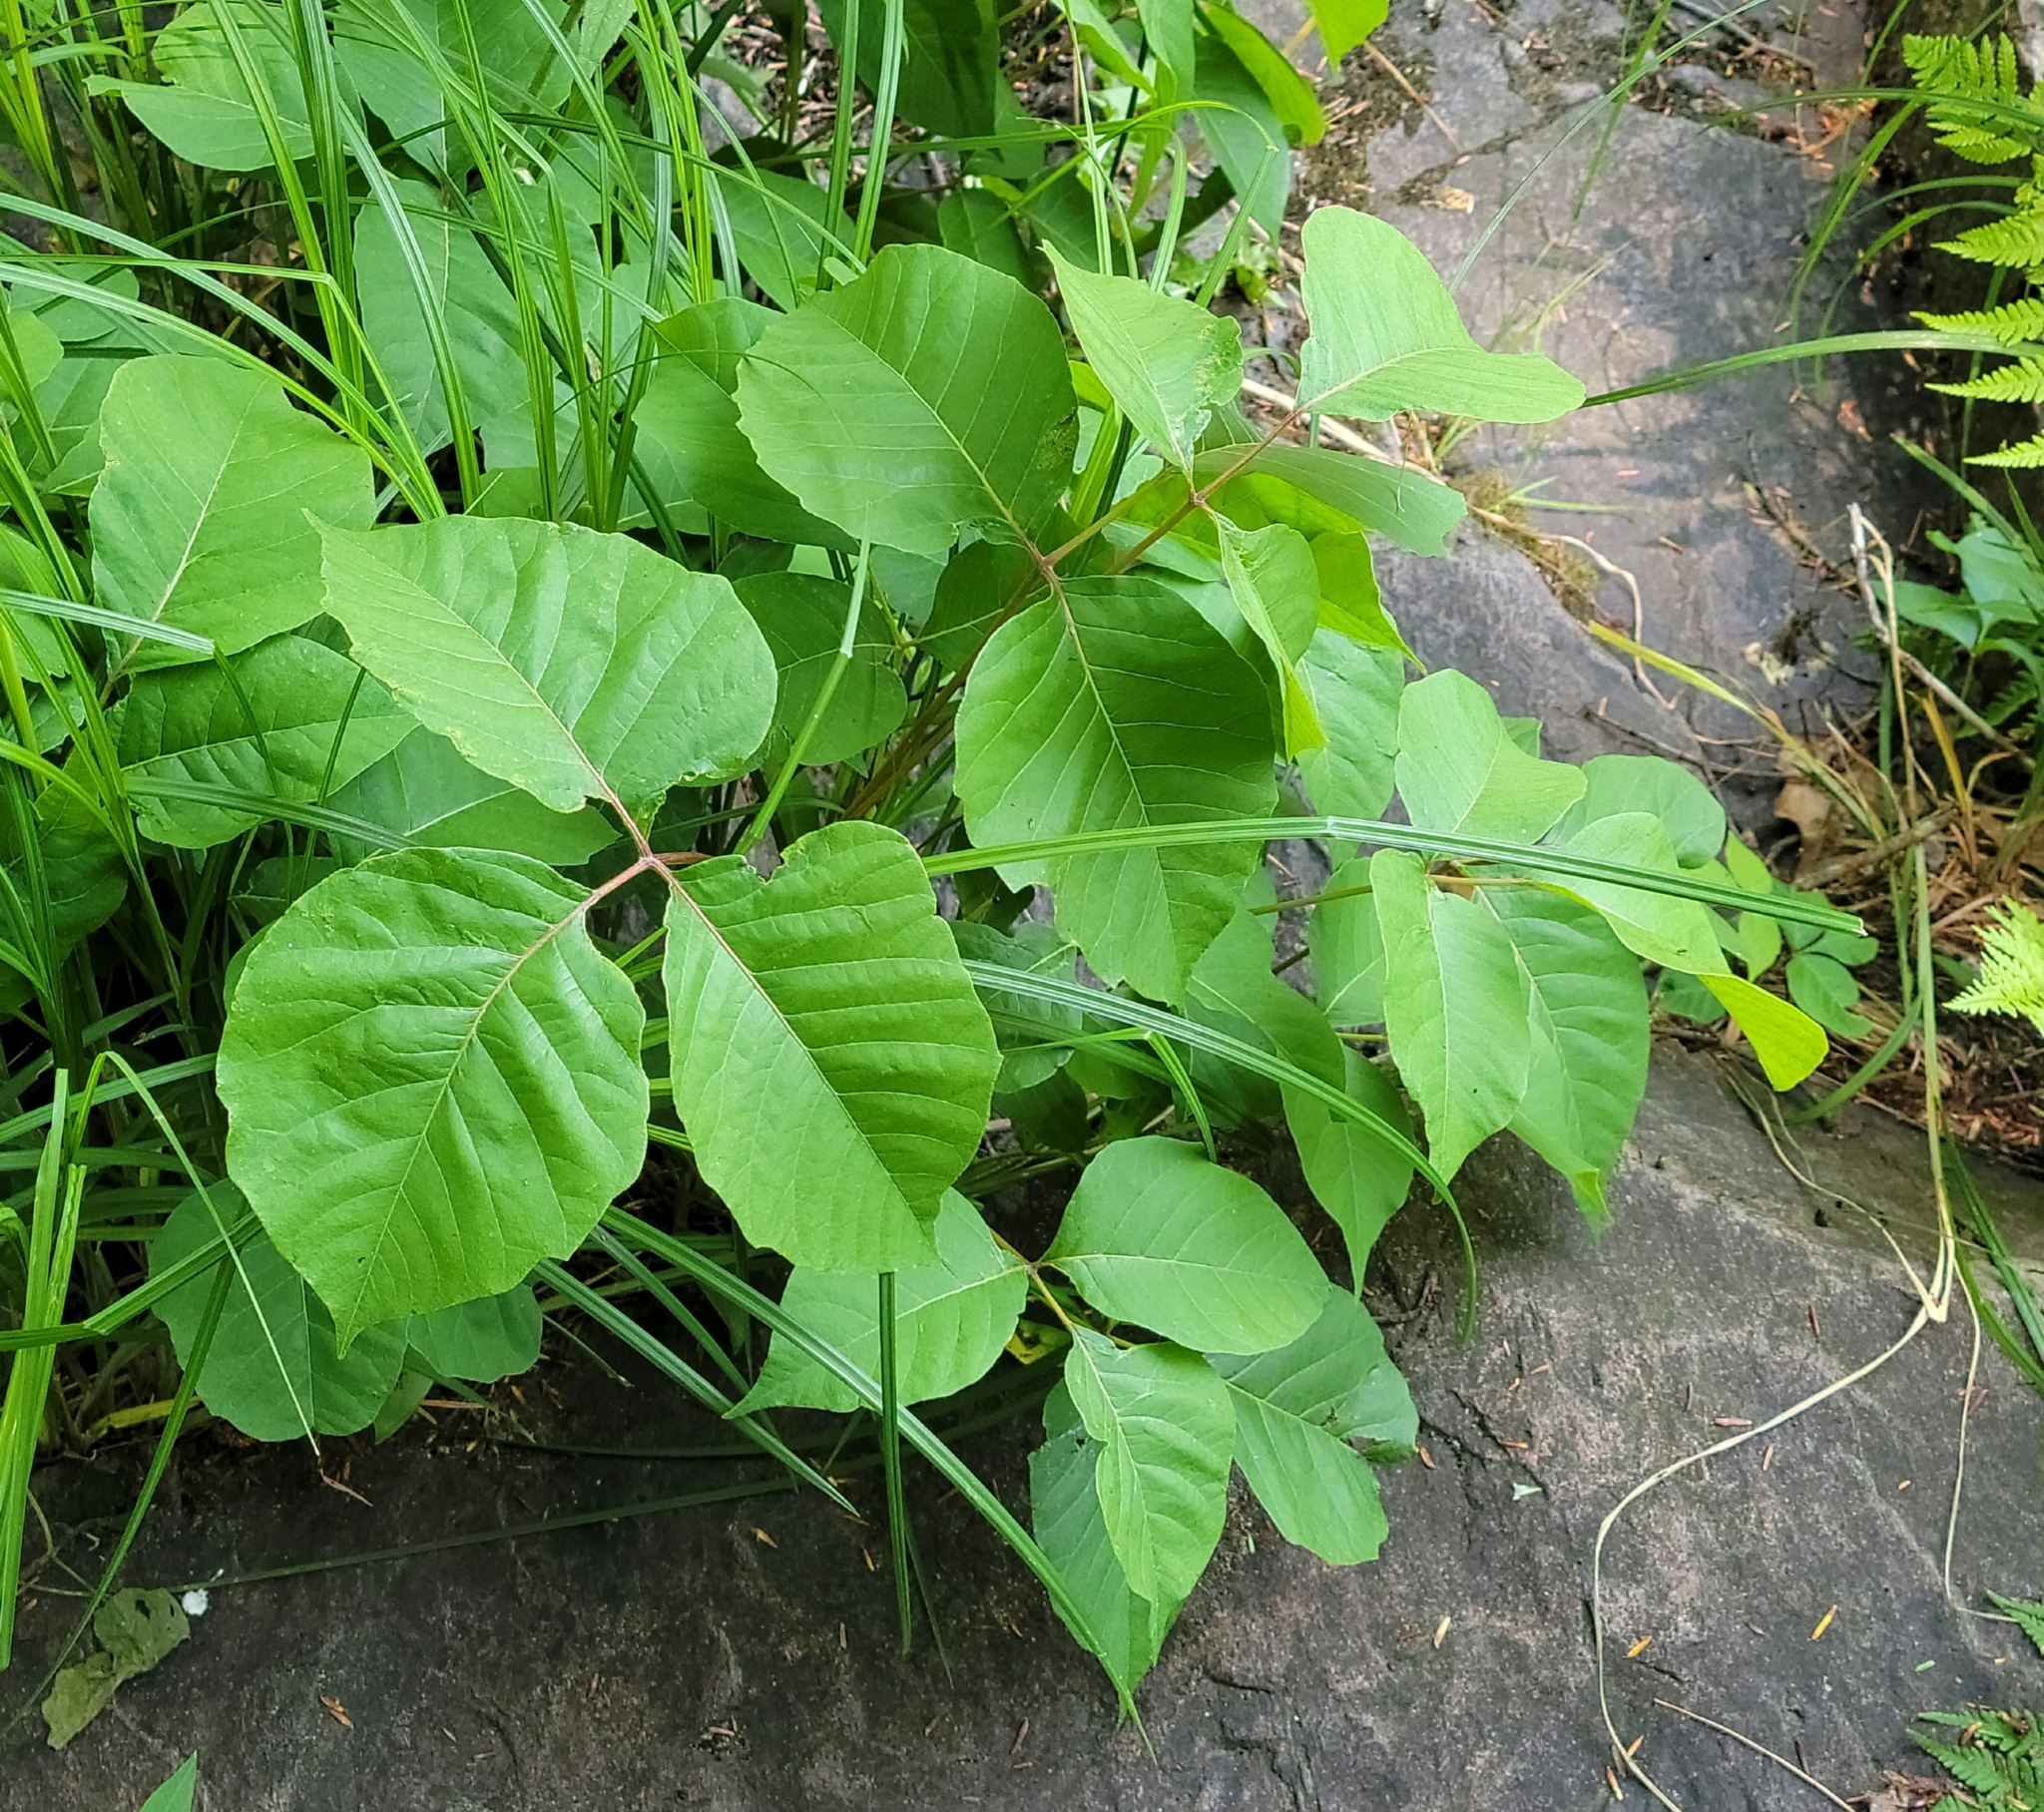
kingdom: Plantae
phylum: Tracheophyta
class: Magnoliopsida
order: Sapindales
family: Anacardiaceae
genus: Toxicodendron
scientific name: Toxicodendron rydbergii
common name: Rydberg's poison-ivy
